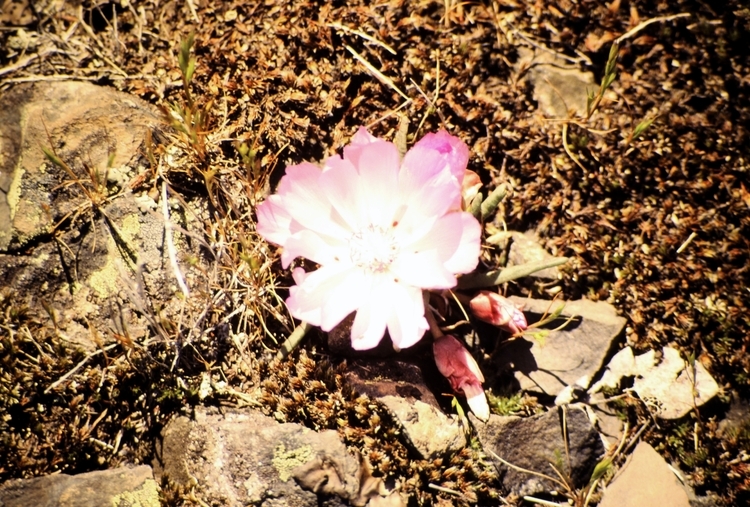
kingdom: Plantae
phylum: Tracheophyta
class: Magnoliopsida
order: Caryophyllales
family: Montiaceae
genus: Lewisia
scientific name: Lewisia rediviva
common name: Bitter-root
